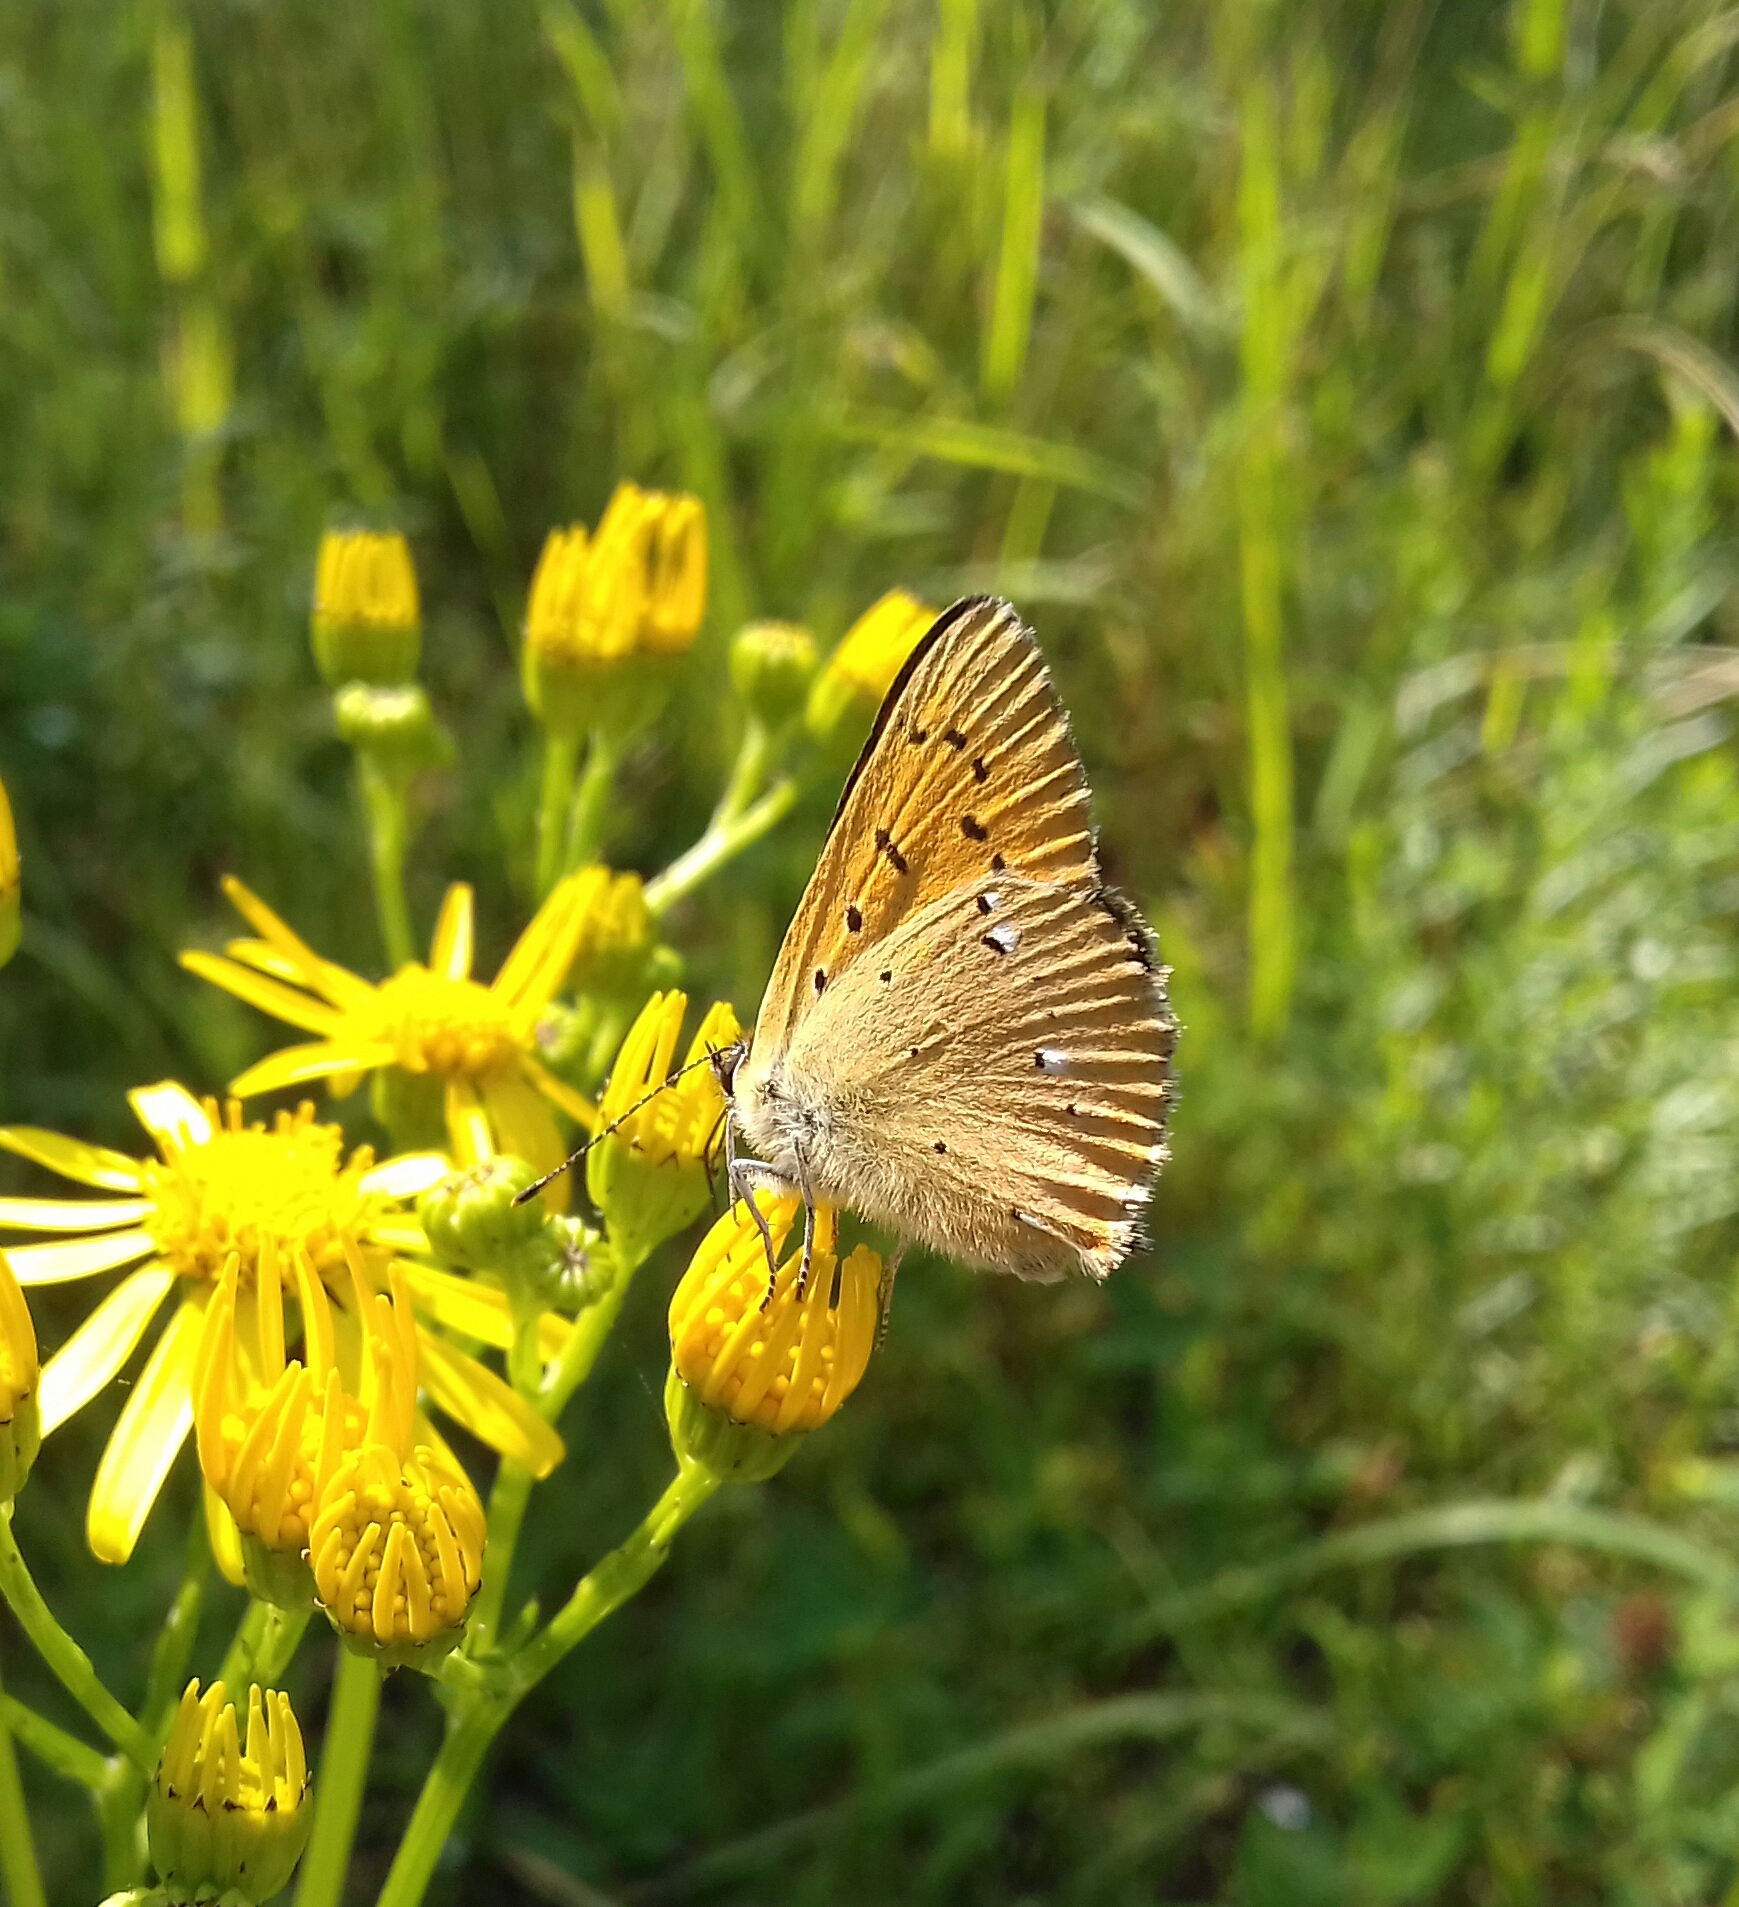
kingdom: Animalia
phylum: Arthropoda
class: Insecta
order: Lepidoptera
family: Lycaenidae
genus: Lycaena
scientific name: Lycaena virgaureae
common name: Scarce copper
